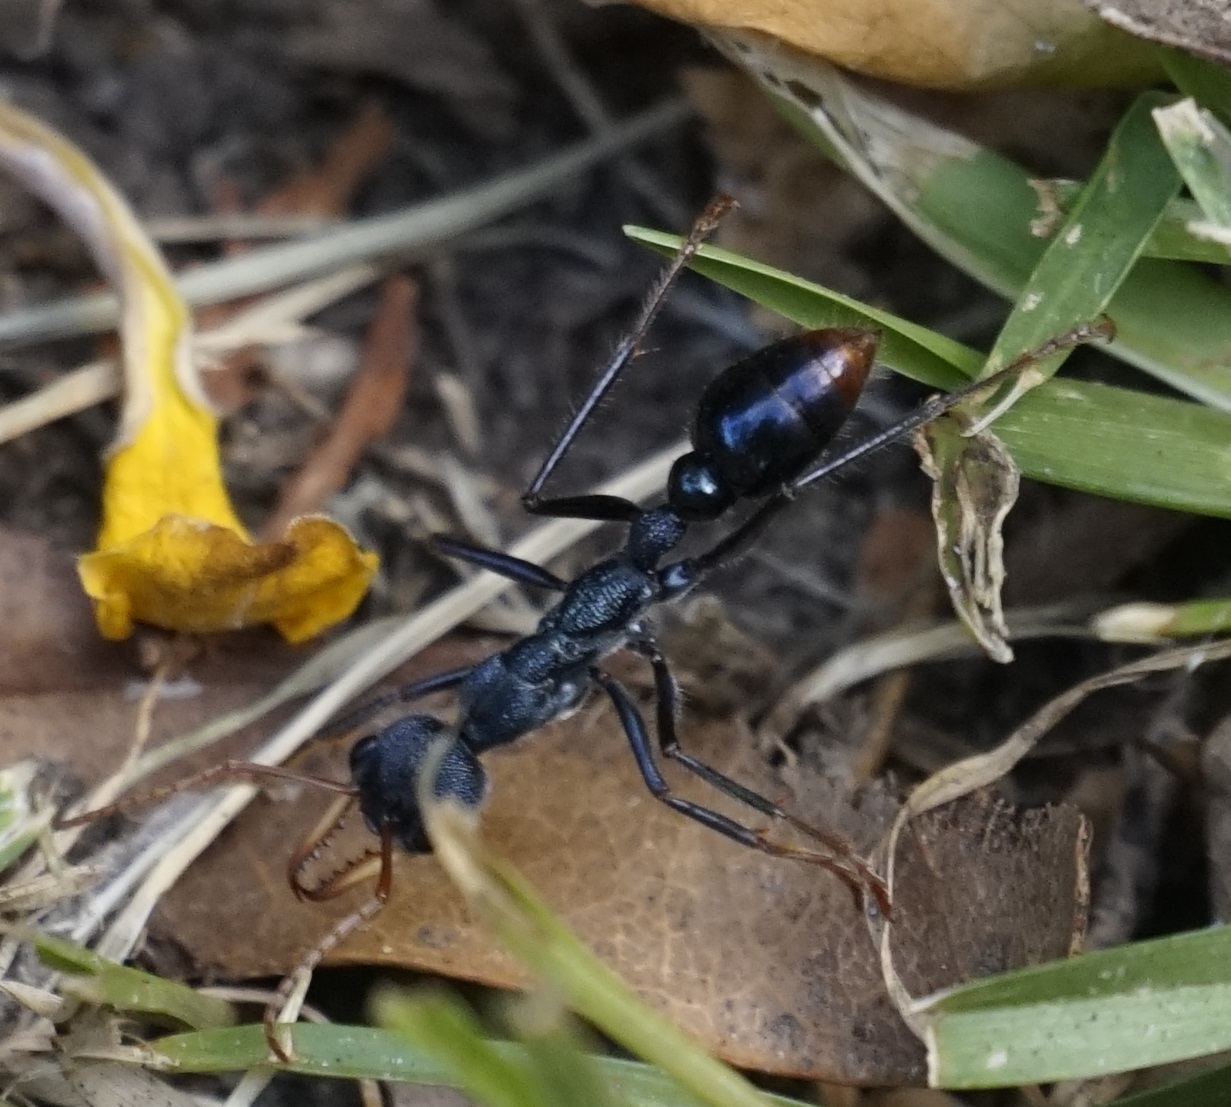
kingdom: Animalia
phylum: Arthropoda
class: Insecta
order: Hymenoptera
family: Formicidae
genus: Myrmecia
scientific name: Myrmecia tarsata
